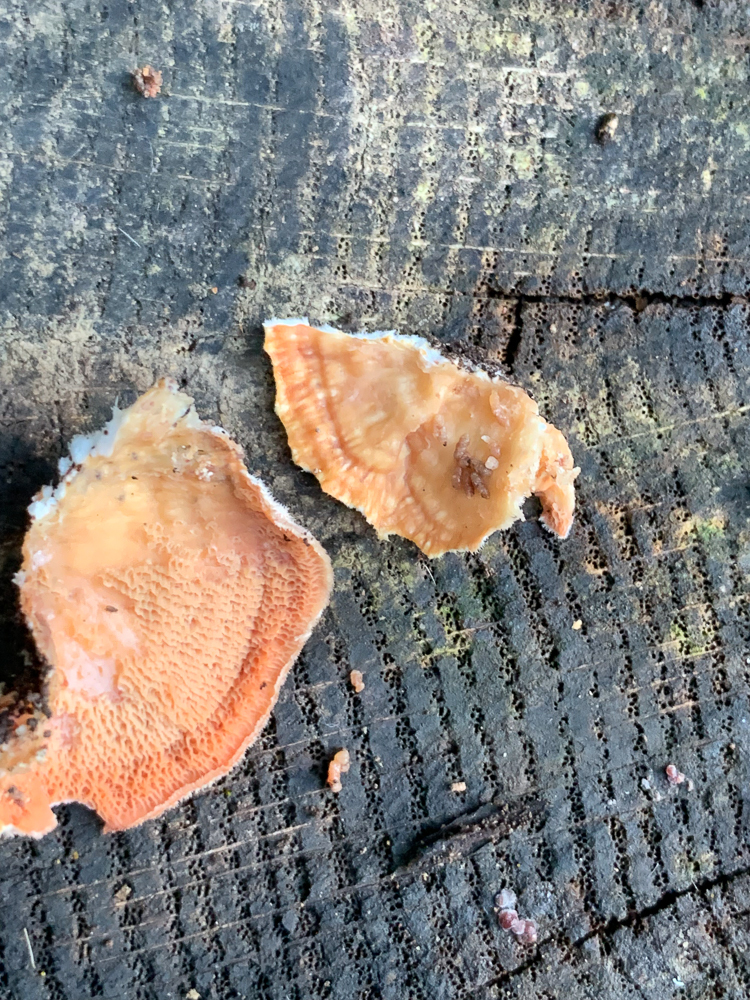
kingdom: Fungi
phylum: Basidiomycota
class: Agaricomycetes
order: Polyporales
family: Meruliaceae
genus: Phlebia
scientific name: Phlebia tremellosa
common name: Jelly rot
